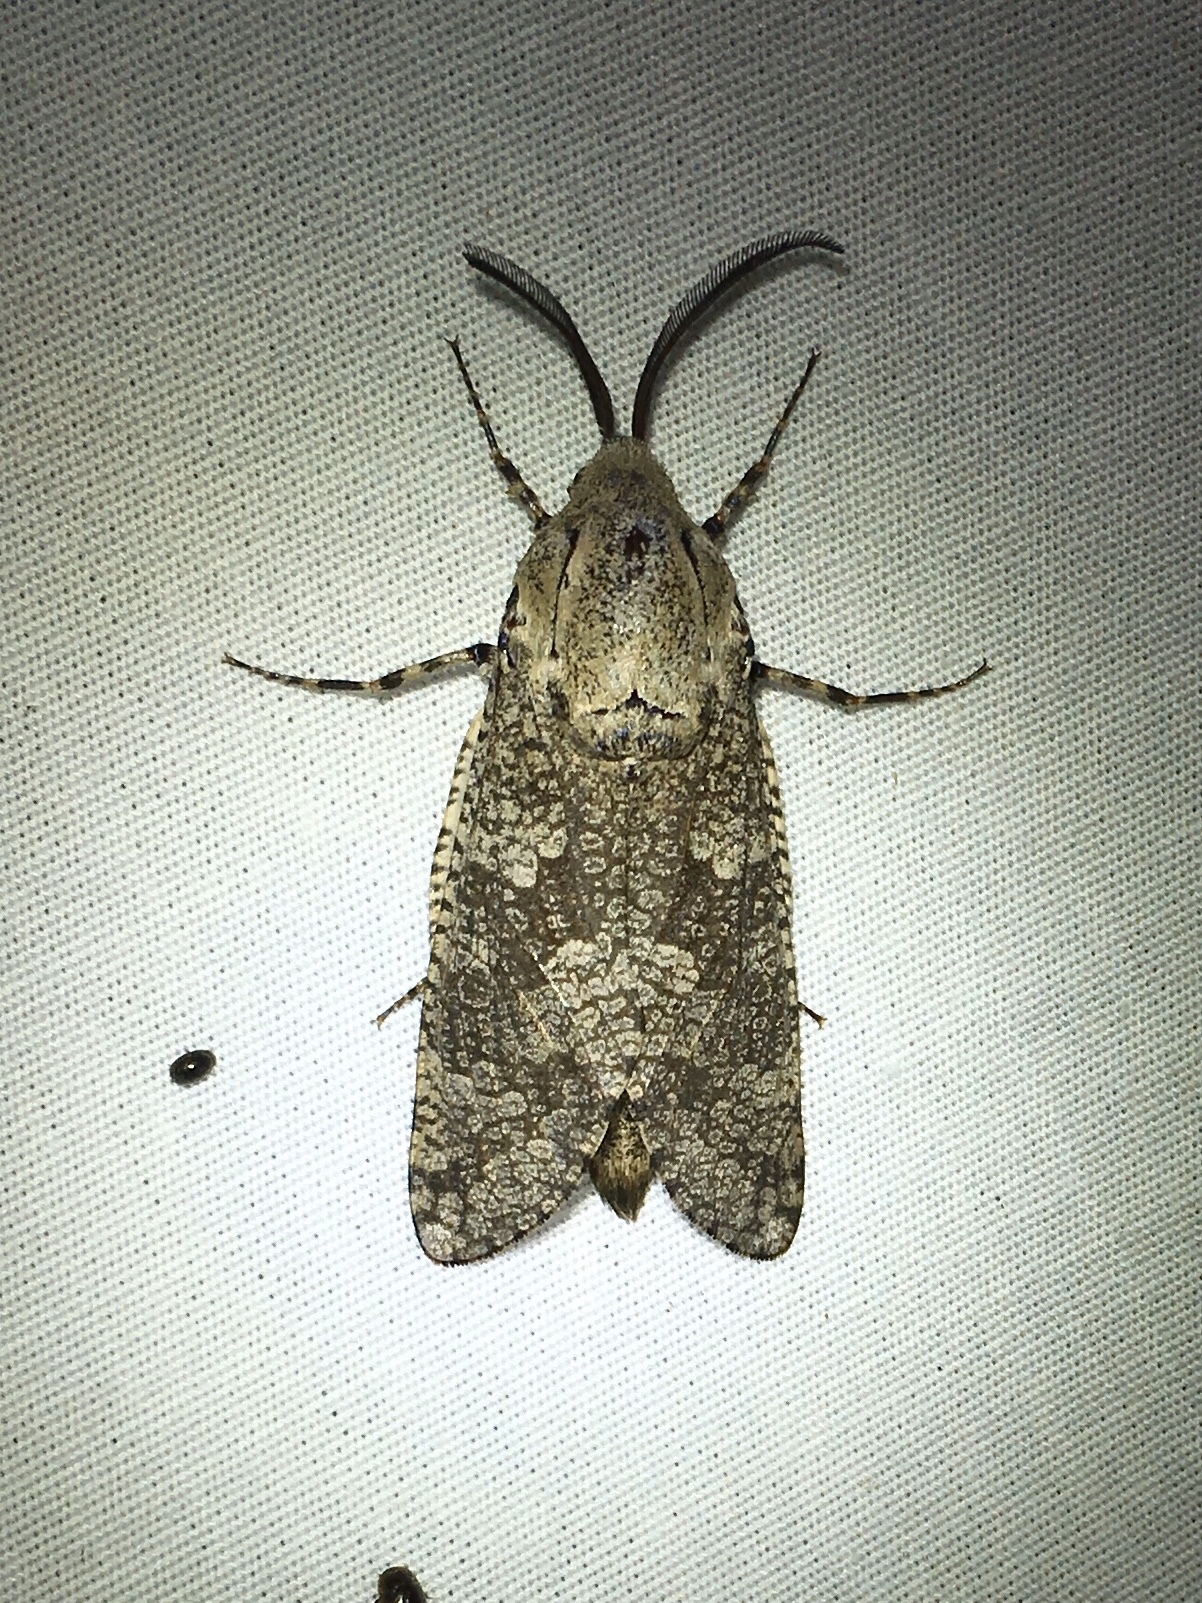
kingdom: Animalia
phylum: Arthropoda
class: Insecta
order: Lepidoptera
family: Cossidae
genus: Prionoxystus
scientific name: Prionoxystus robiniae
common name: Carpenterworm
